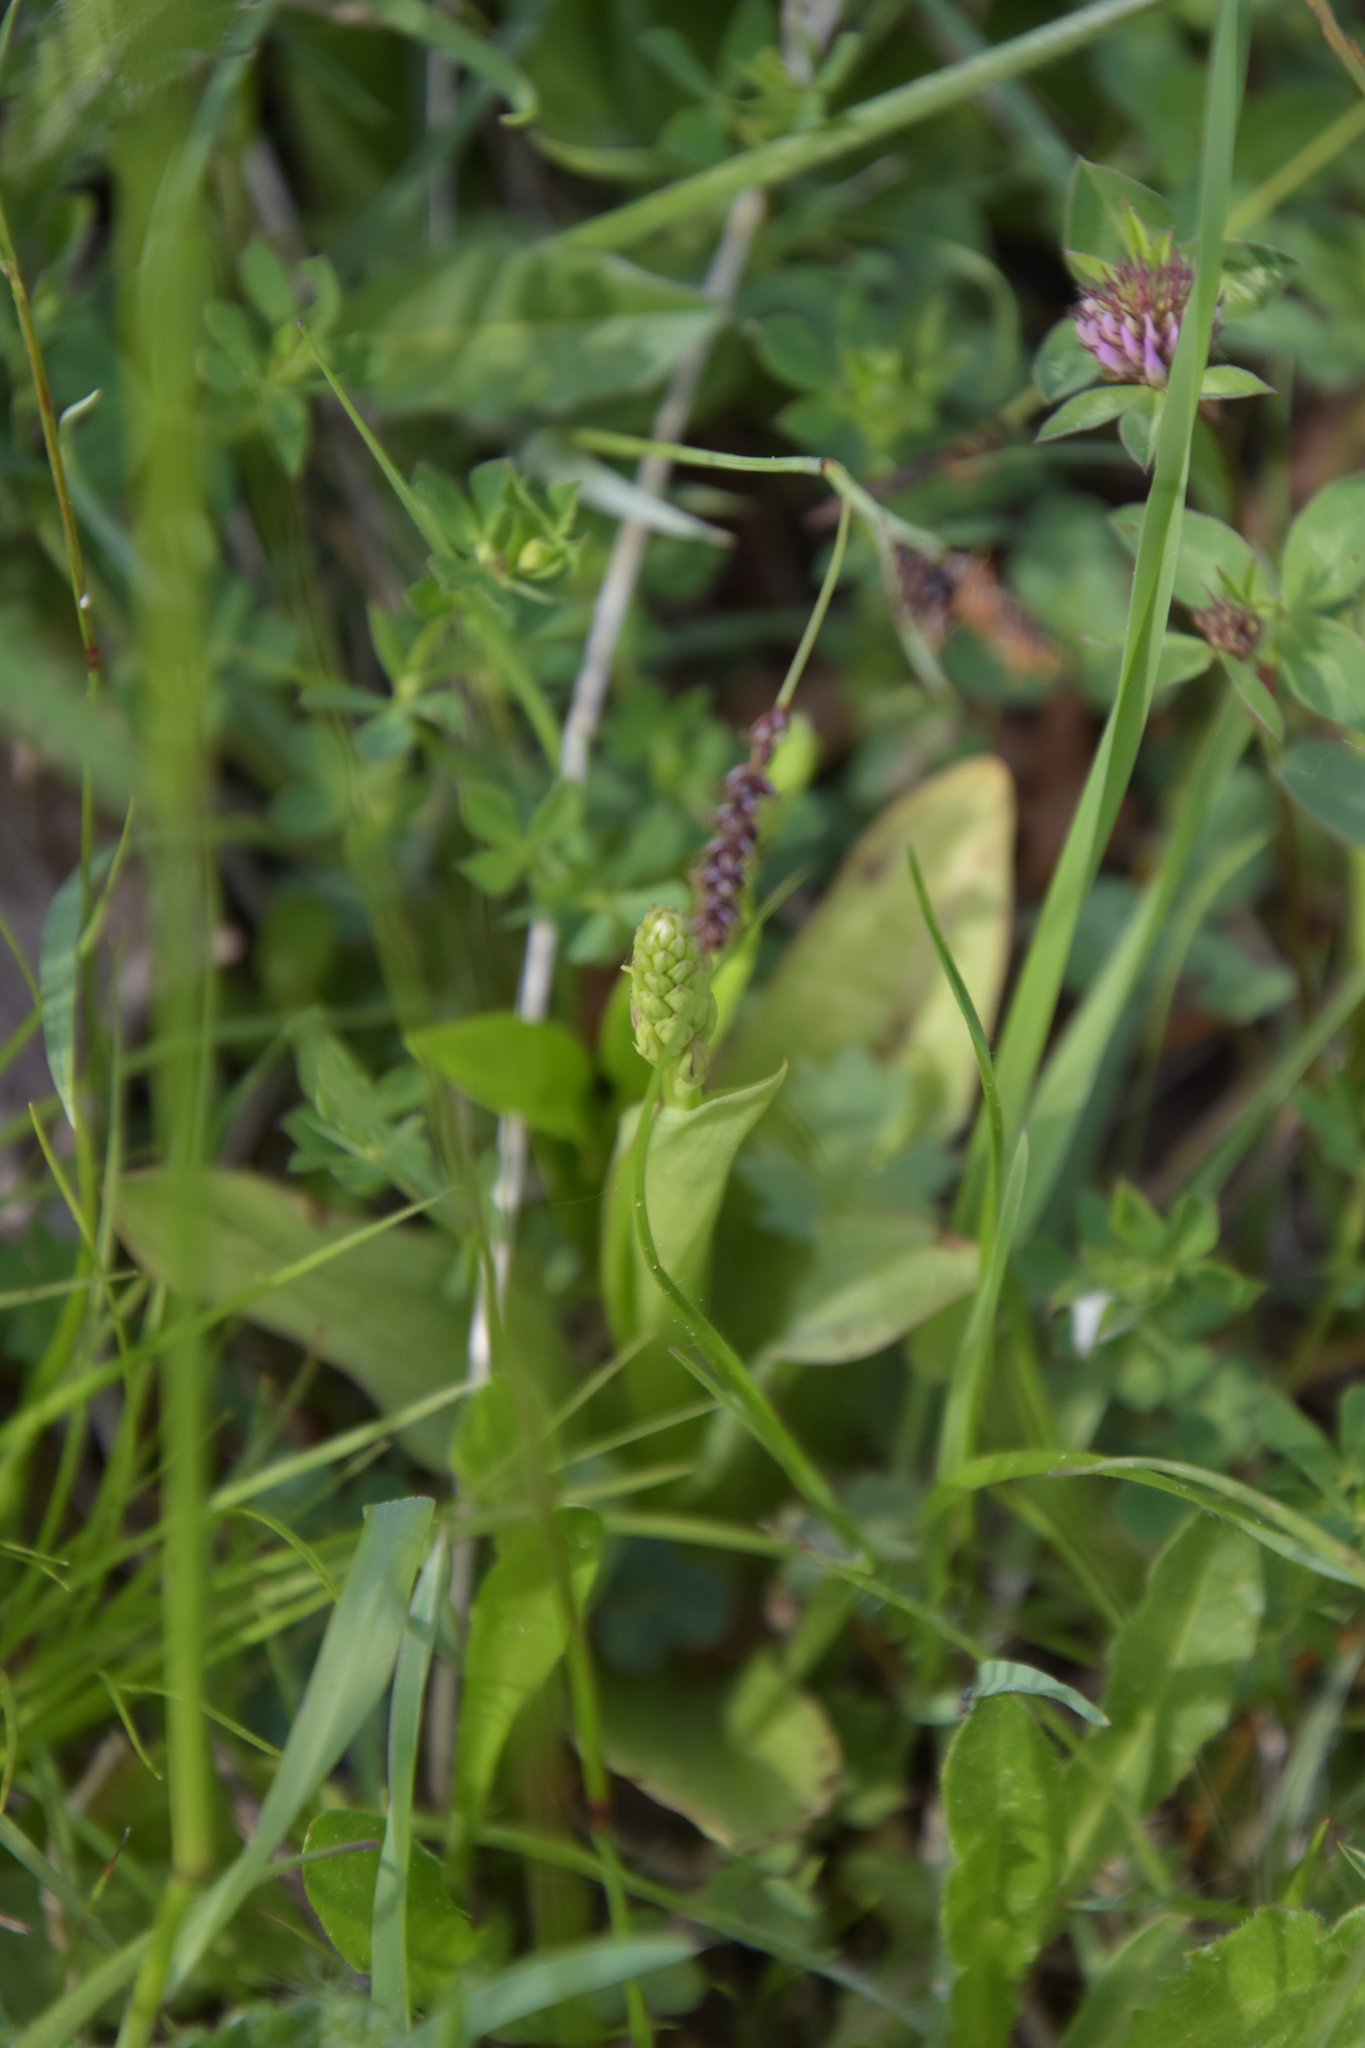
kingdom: Plantae
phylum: Tracheophyta
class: Liliopsida
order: Asparagales
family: Orchidaceae
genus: Orchis
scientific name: Orchis anthropophora
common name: Man orchid
